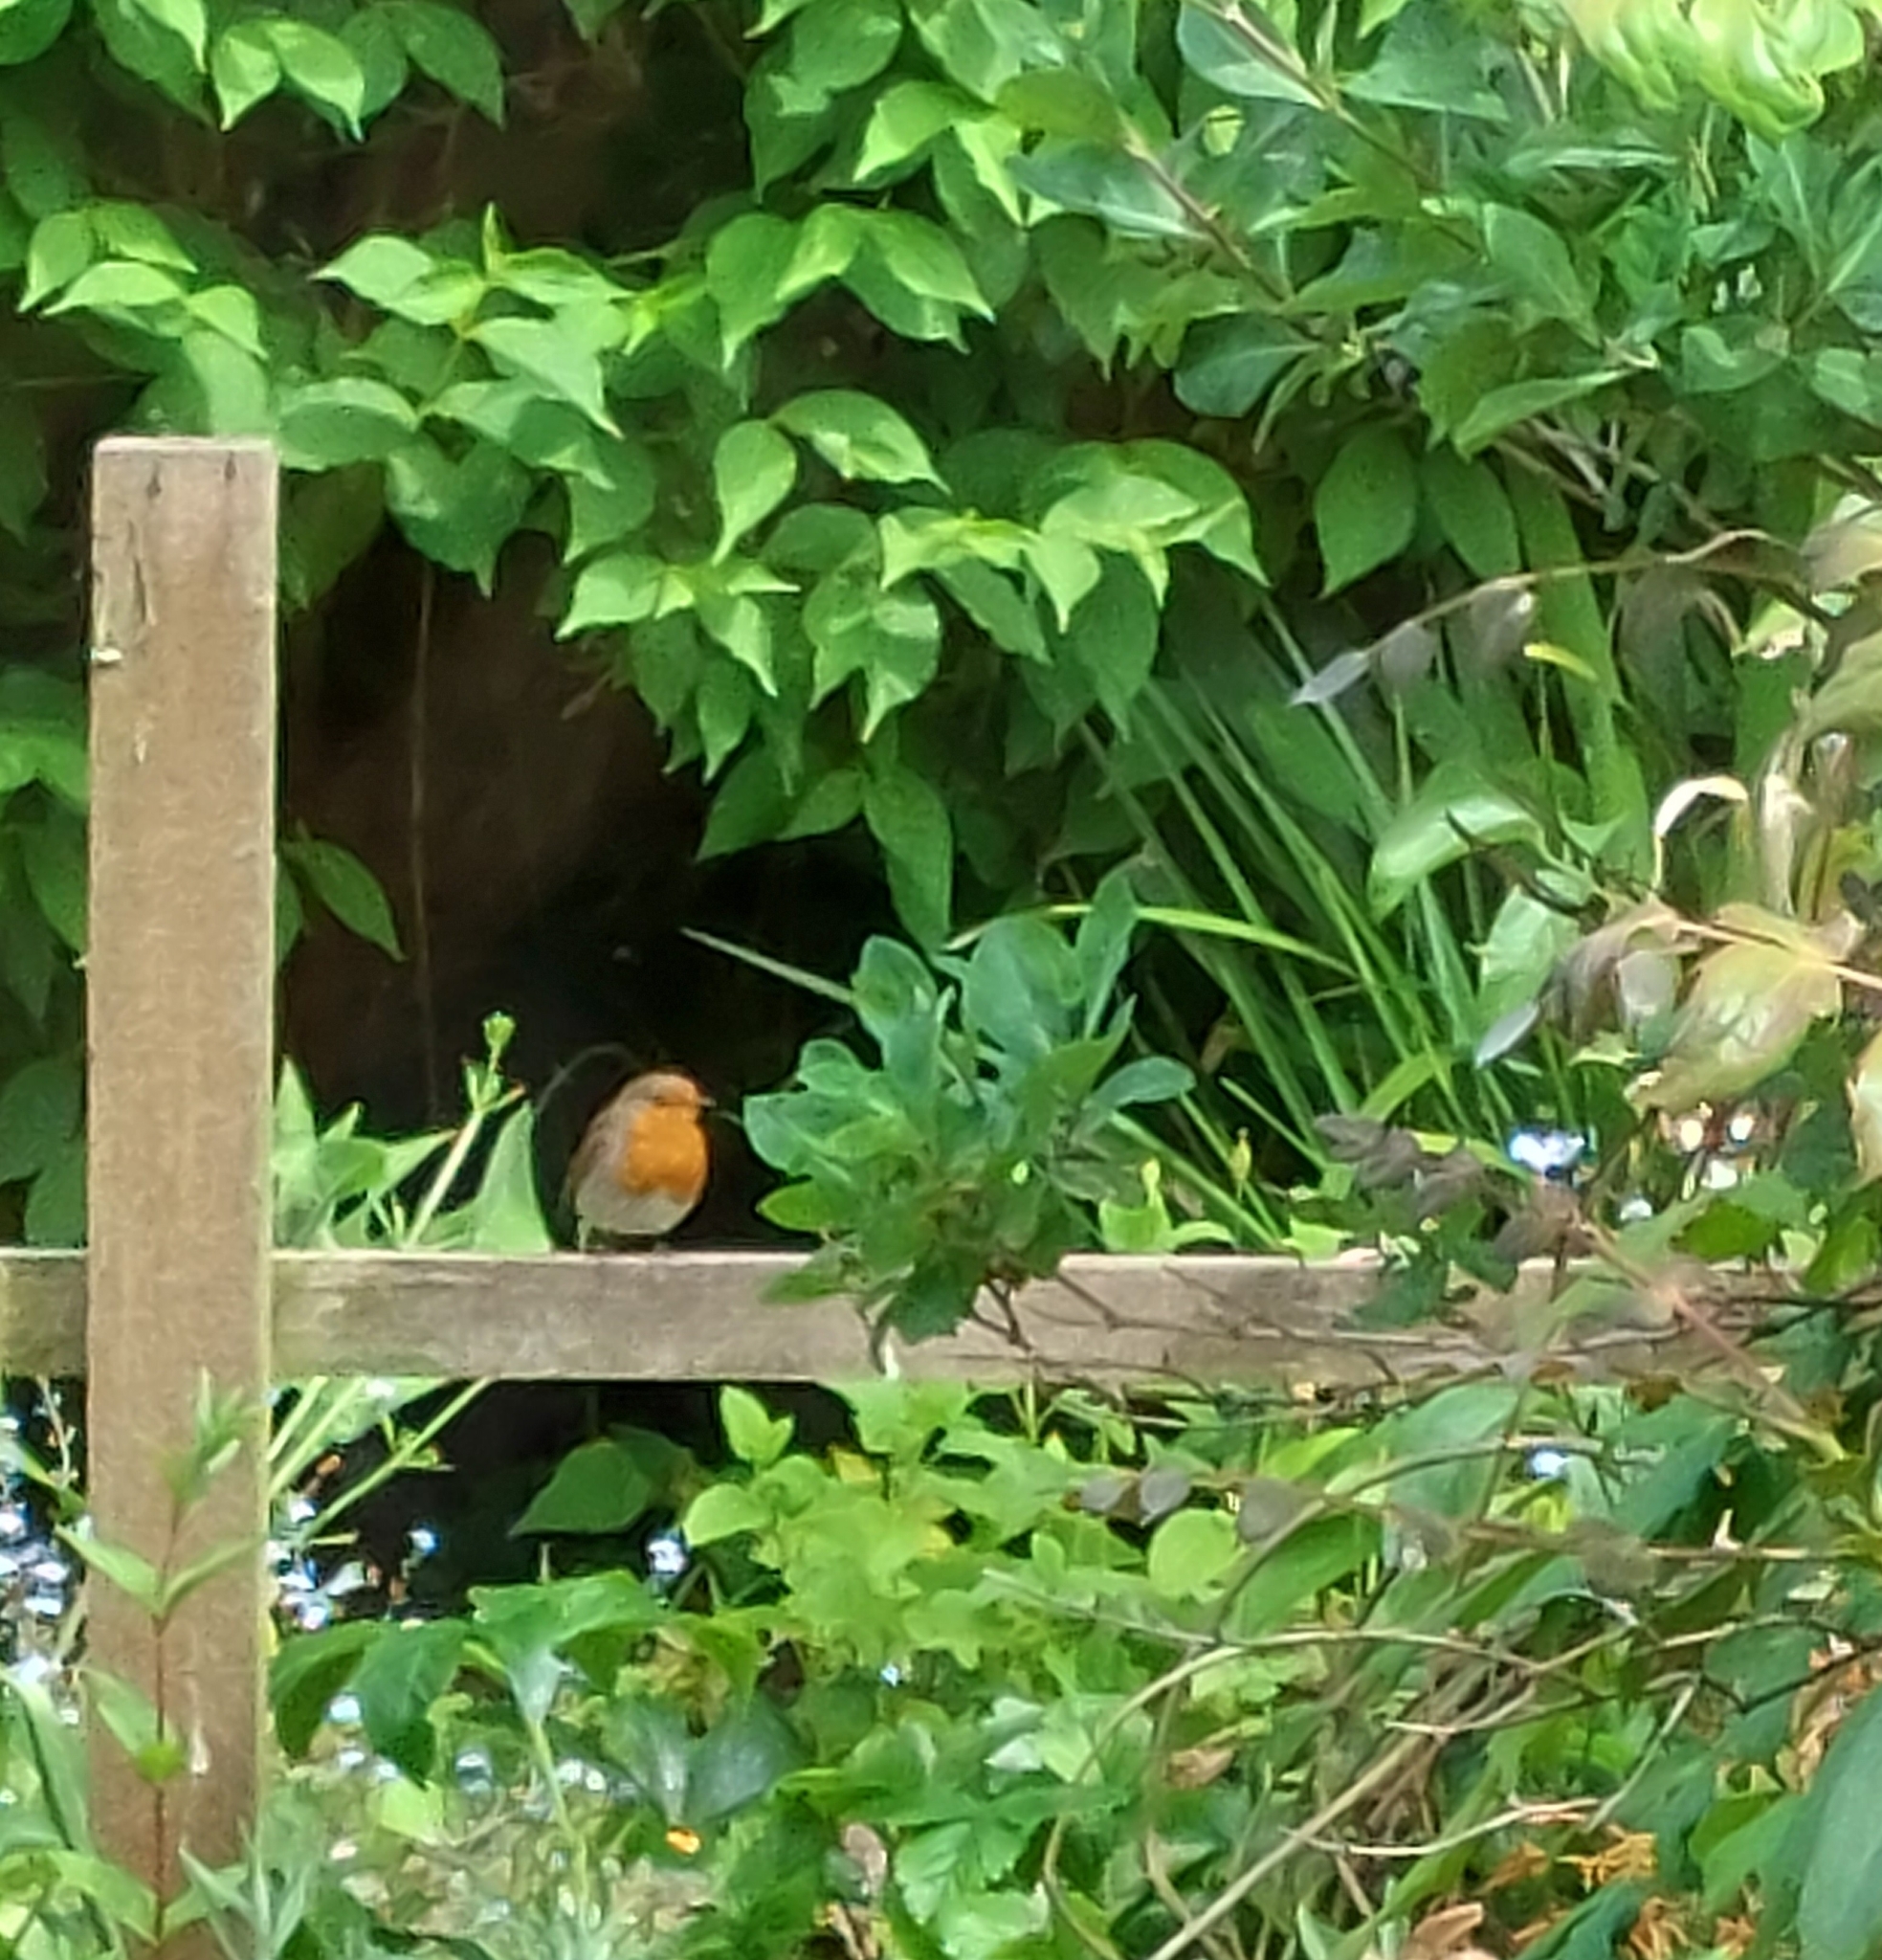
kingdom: Animalia
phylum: Chordata
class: Aves
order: Passeriformes
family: Muscicapidae
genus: Erithacus
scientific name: Erithacus rubecula
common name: European robin
